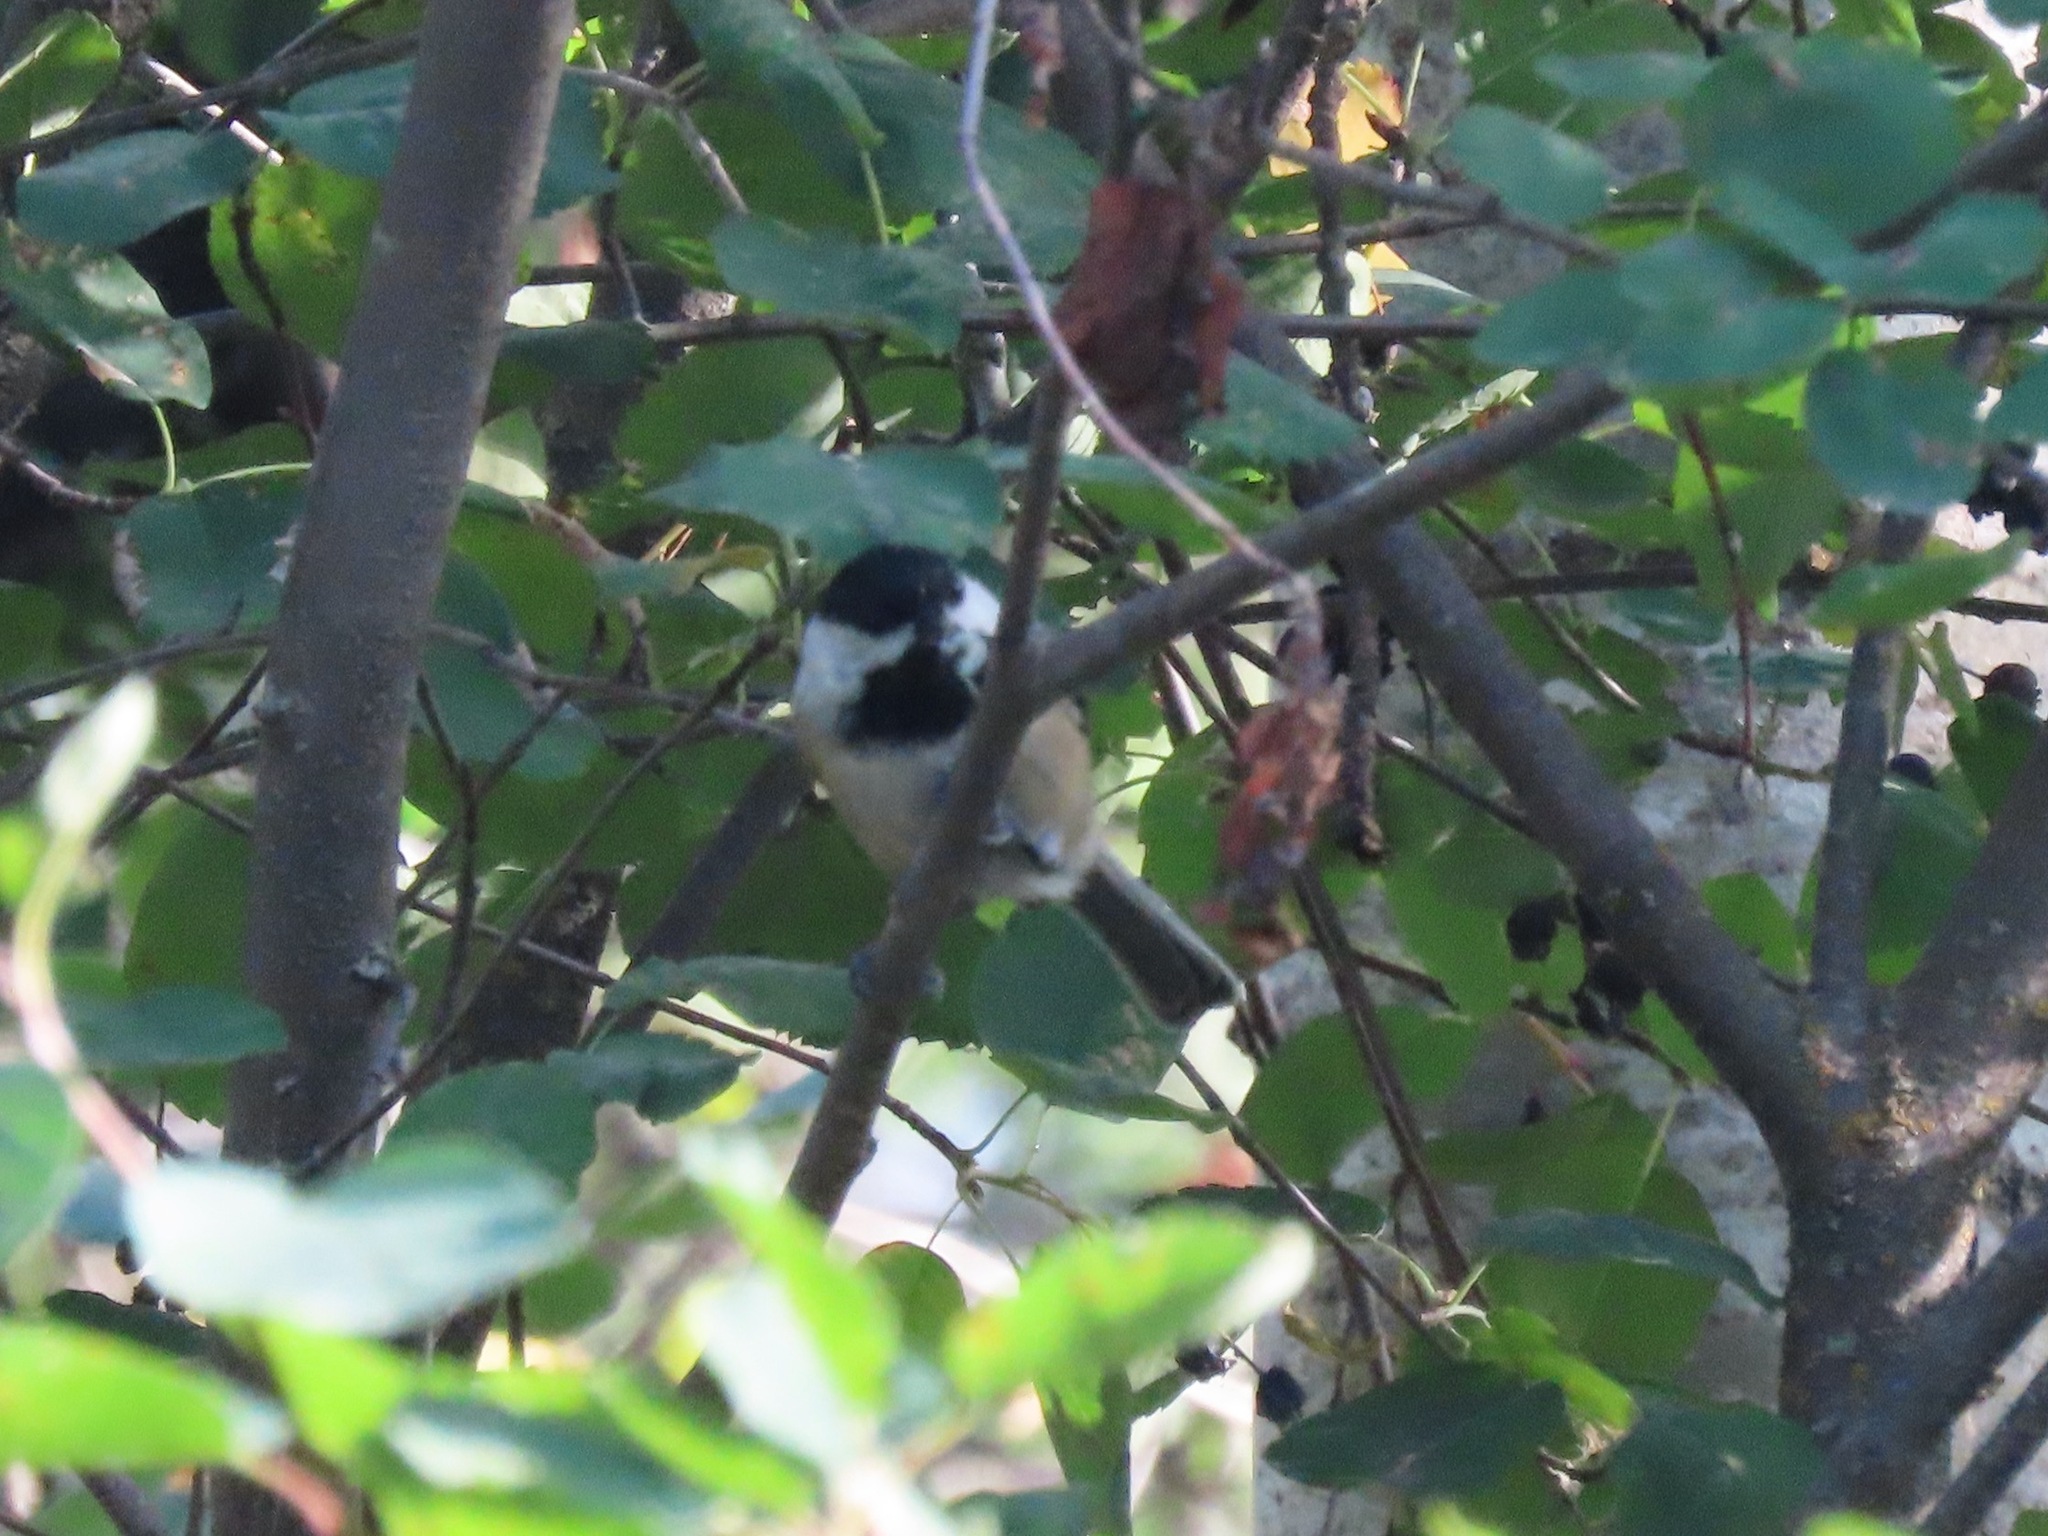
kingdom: Animalia
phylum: Chordata
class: Aves
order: Passeriformes
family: Paridae
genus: Poecile
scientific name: Poecile atricapillus
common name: Black-capped chickadee
